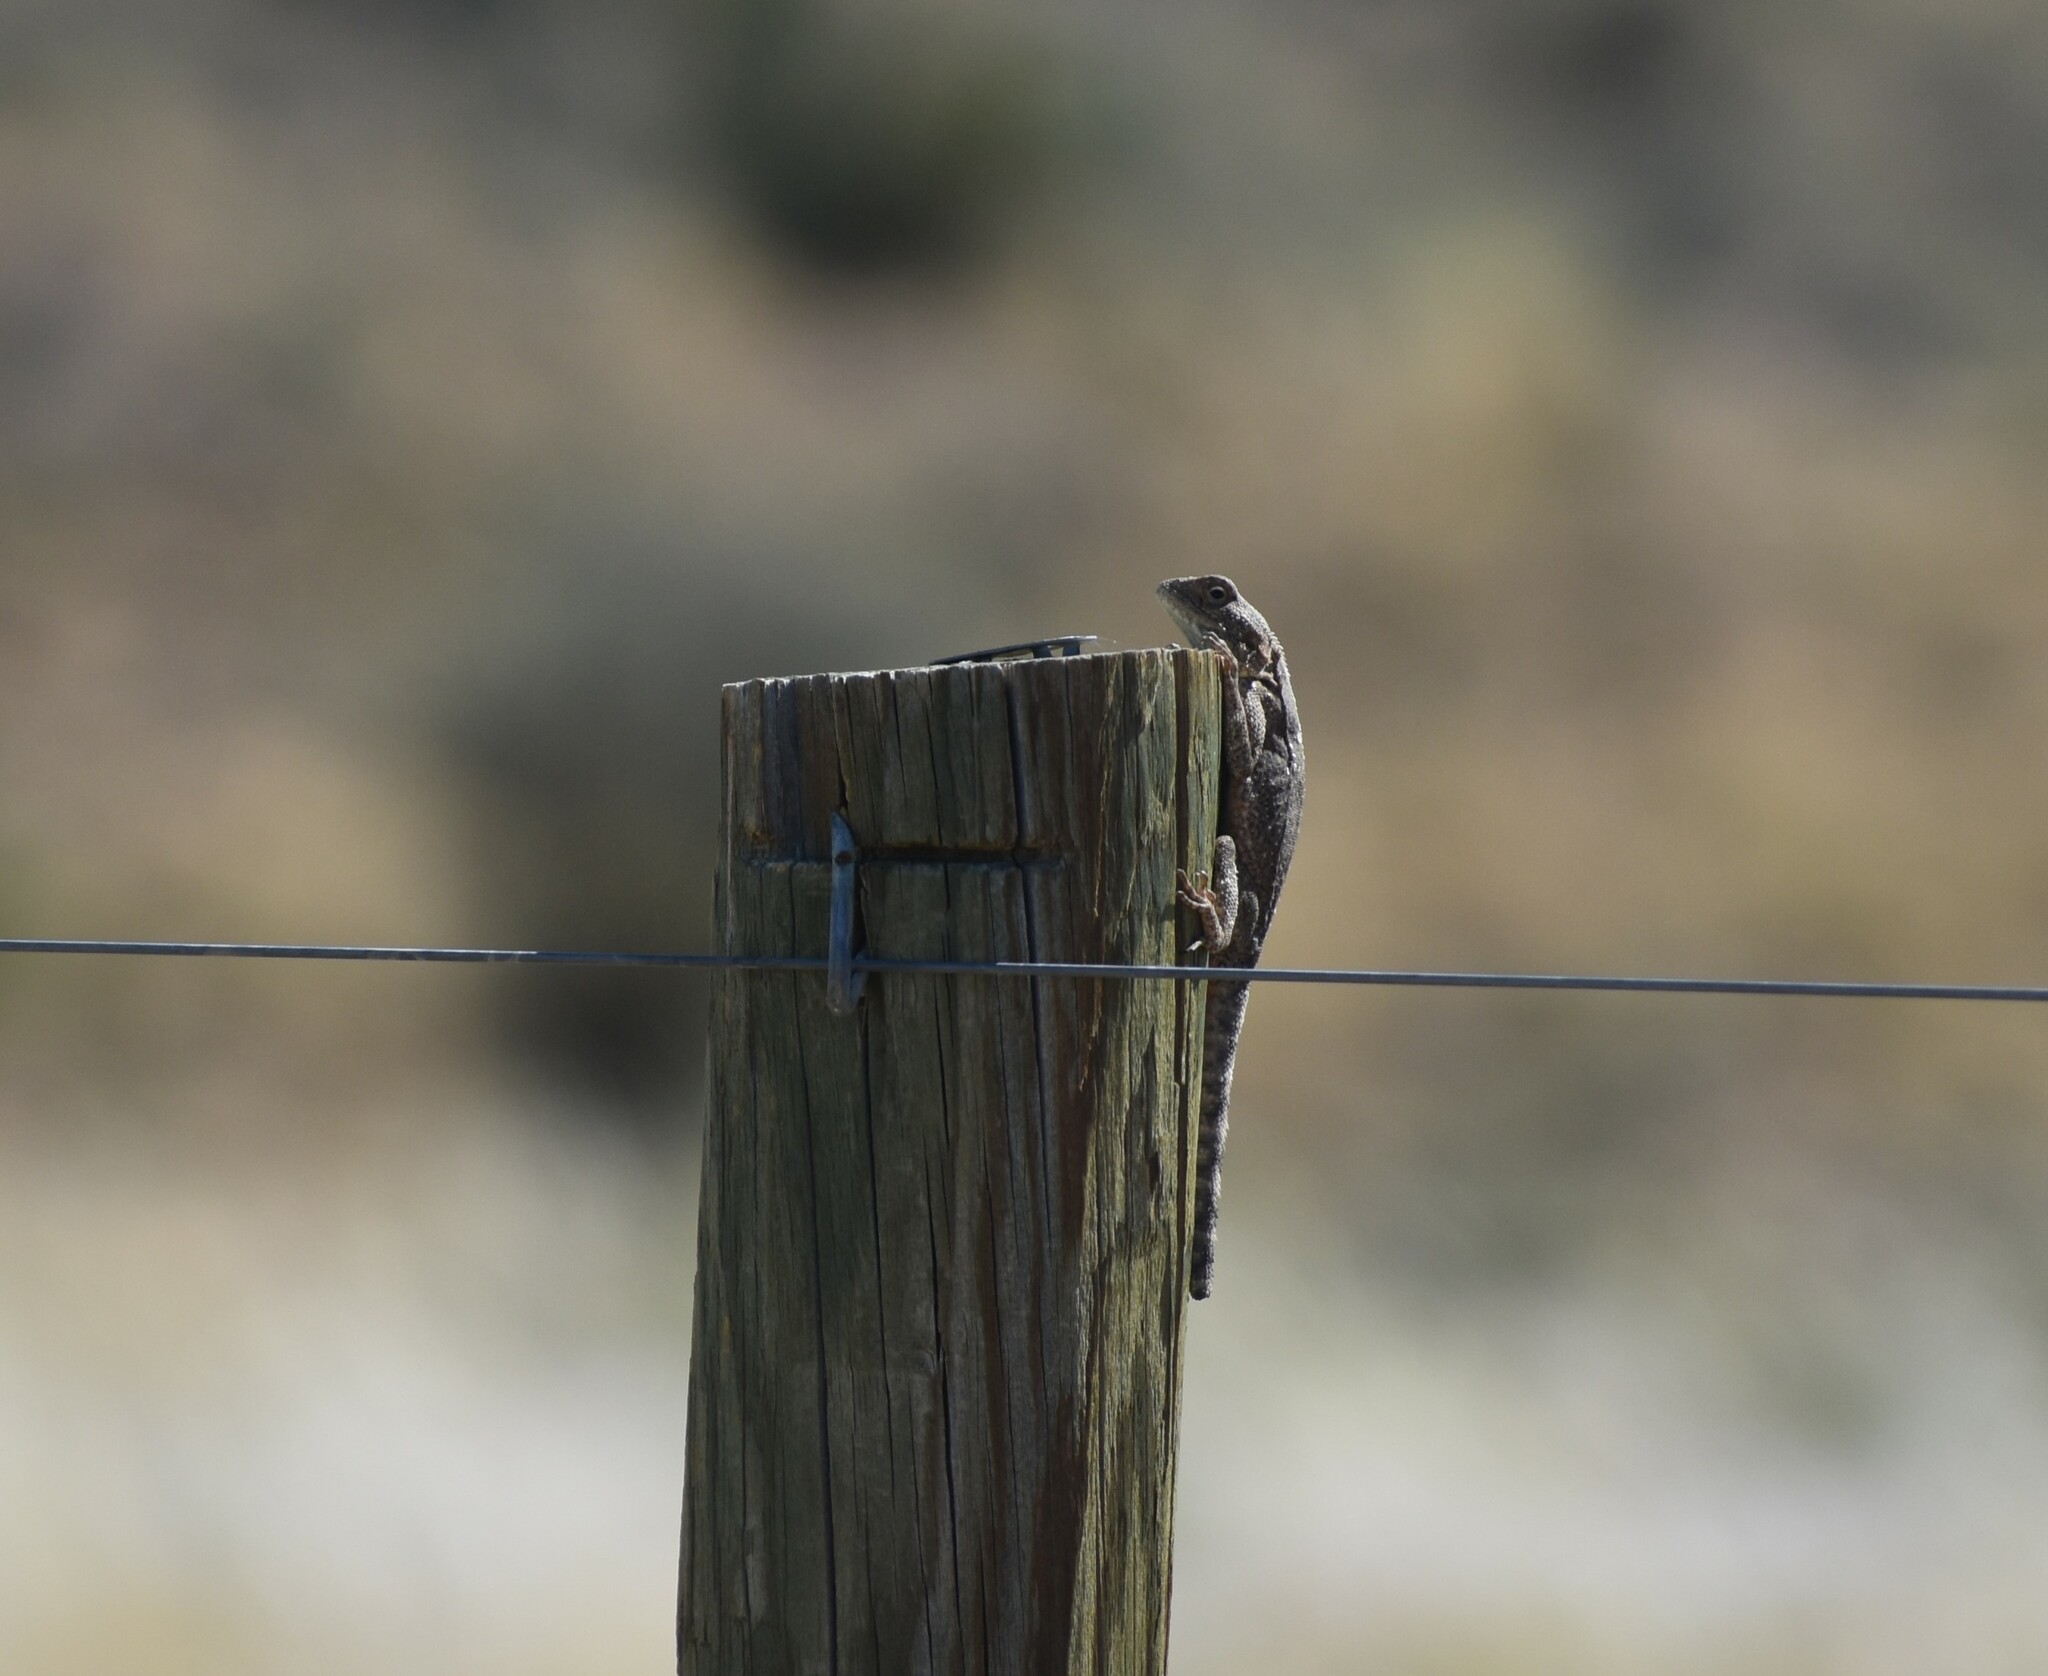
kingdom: Animalia
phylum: Chordata
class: Squamata
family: Agamidae
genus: Agama
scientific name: Agama atra
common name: Southern african rock agama
